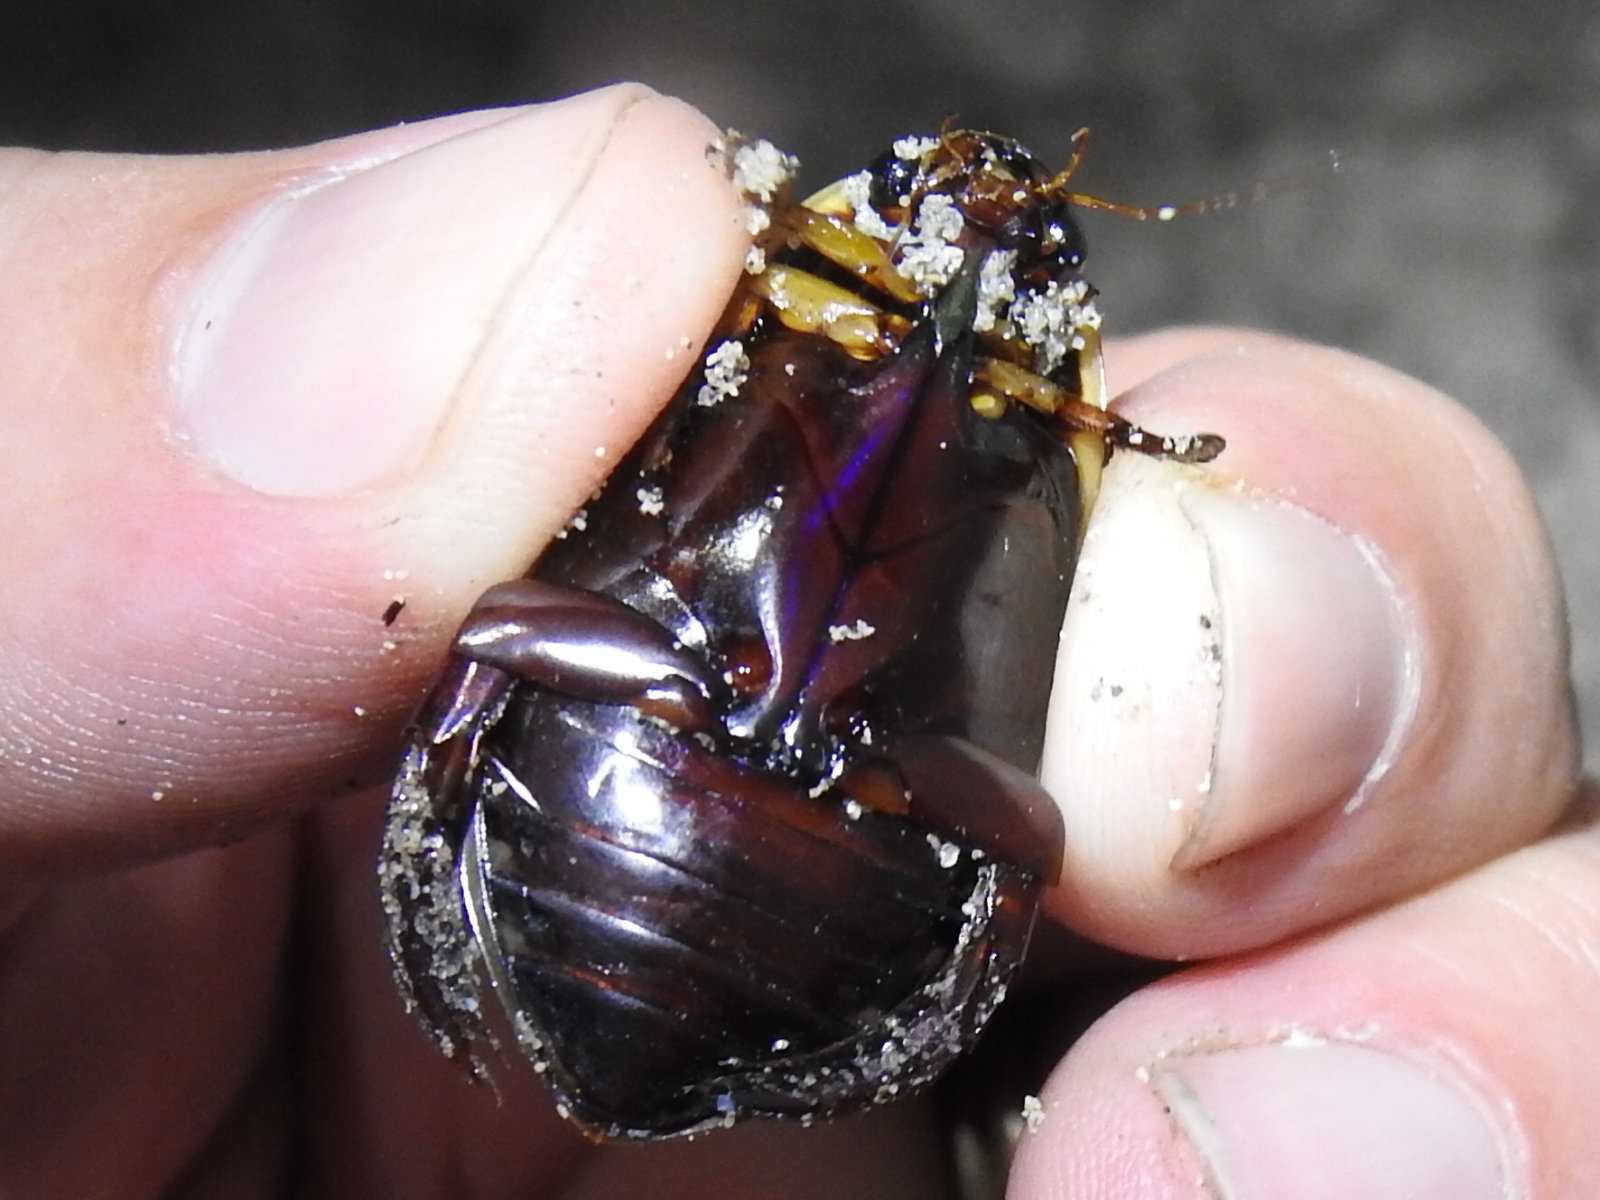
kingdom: Animalia
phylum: Arthropoda
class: Insecta
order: Coleoptera
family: Dytiscidae
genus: Cybister
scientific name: Cybister fimbriolatus
